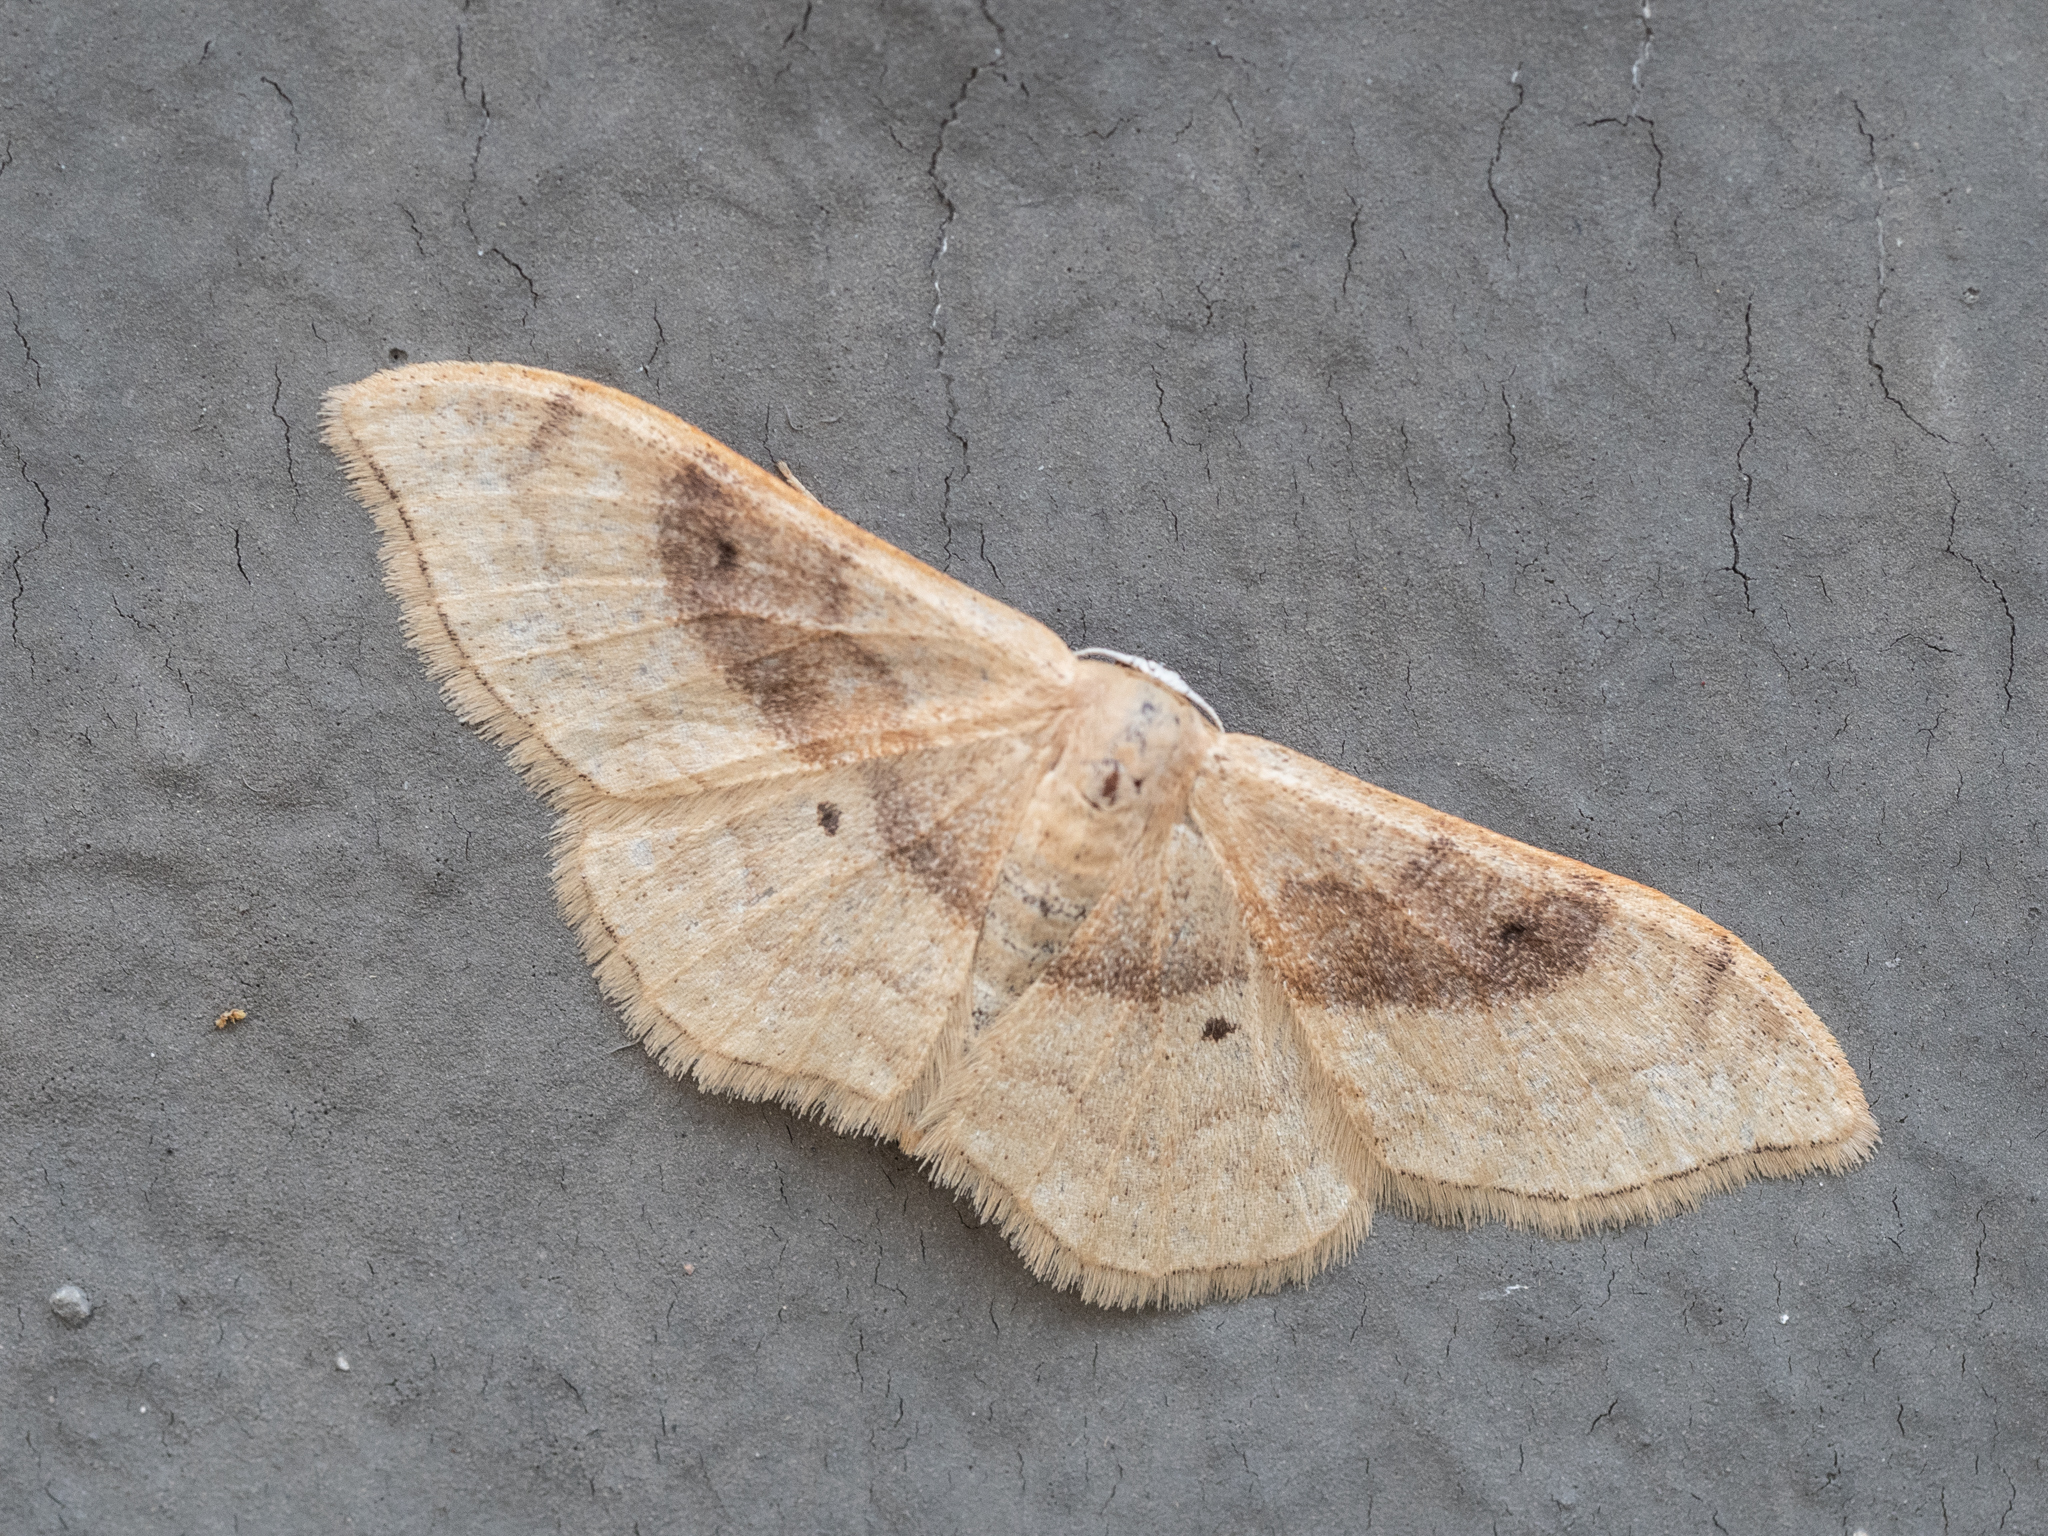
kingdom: Animalia
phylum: Arthropoda
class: Insecta
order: Lepidoptera
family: Geometridae
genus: Idaea
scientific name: Idaea degeneraria
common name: Portland ribbon wave
